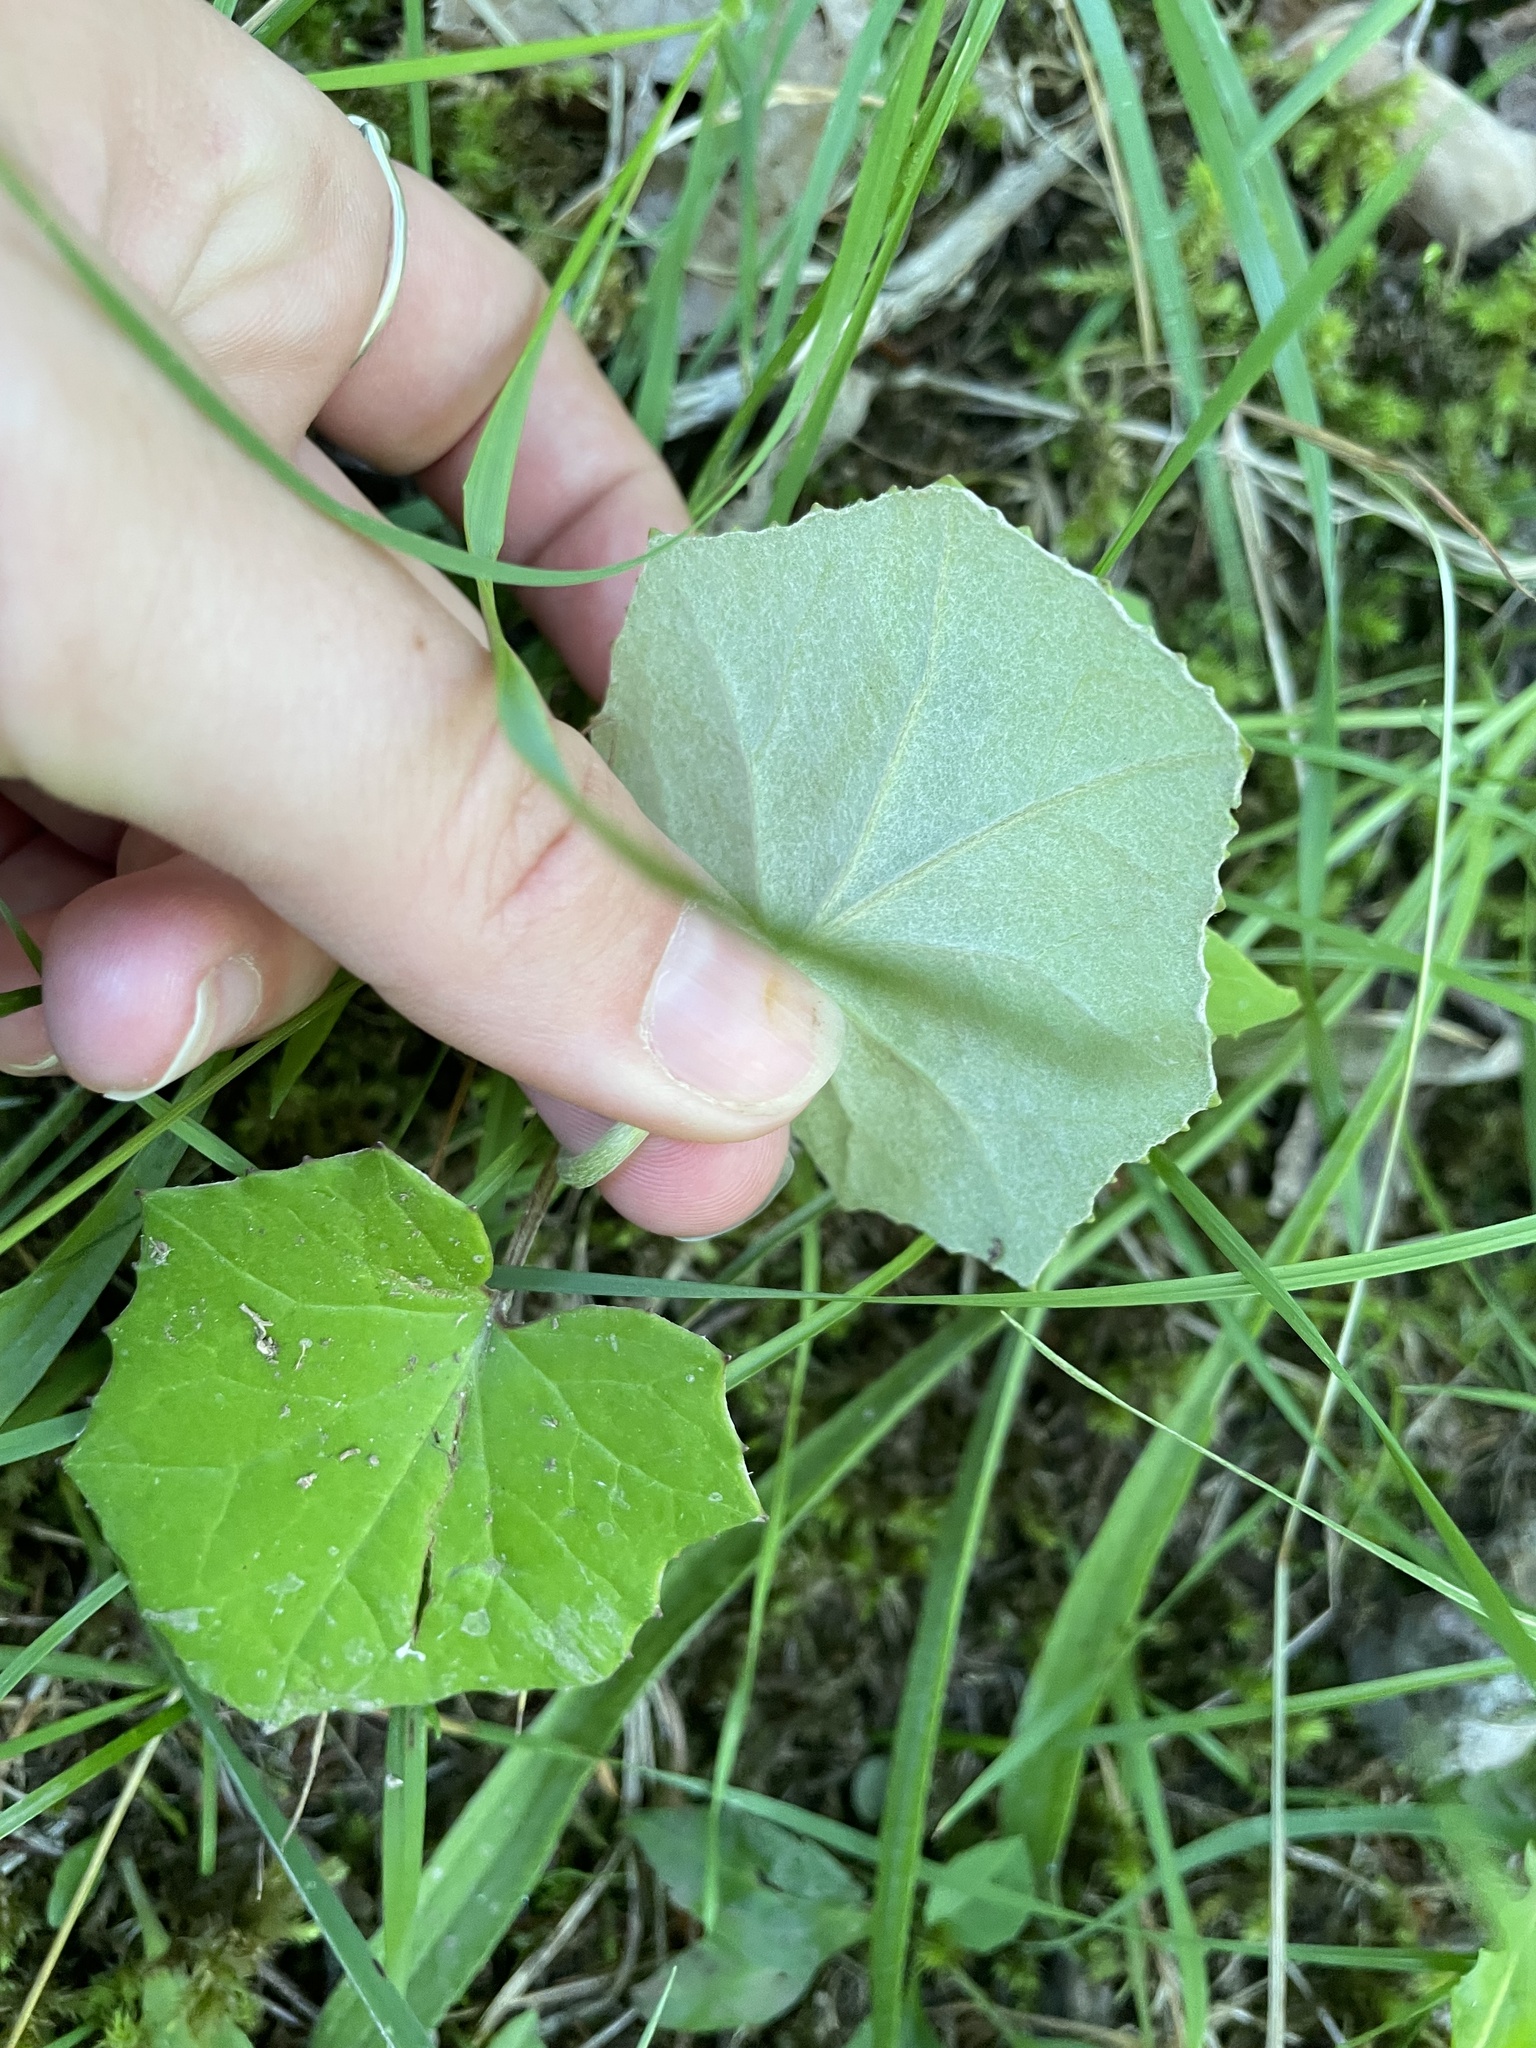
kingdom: Plantae
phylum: Tracheophyta
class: Magnoliopsida
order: Asterales
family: Asteraceae
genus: Tussilago
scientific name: Tussilago farfara
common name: Coltsfoot
